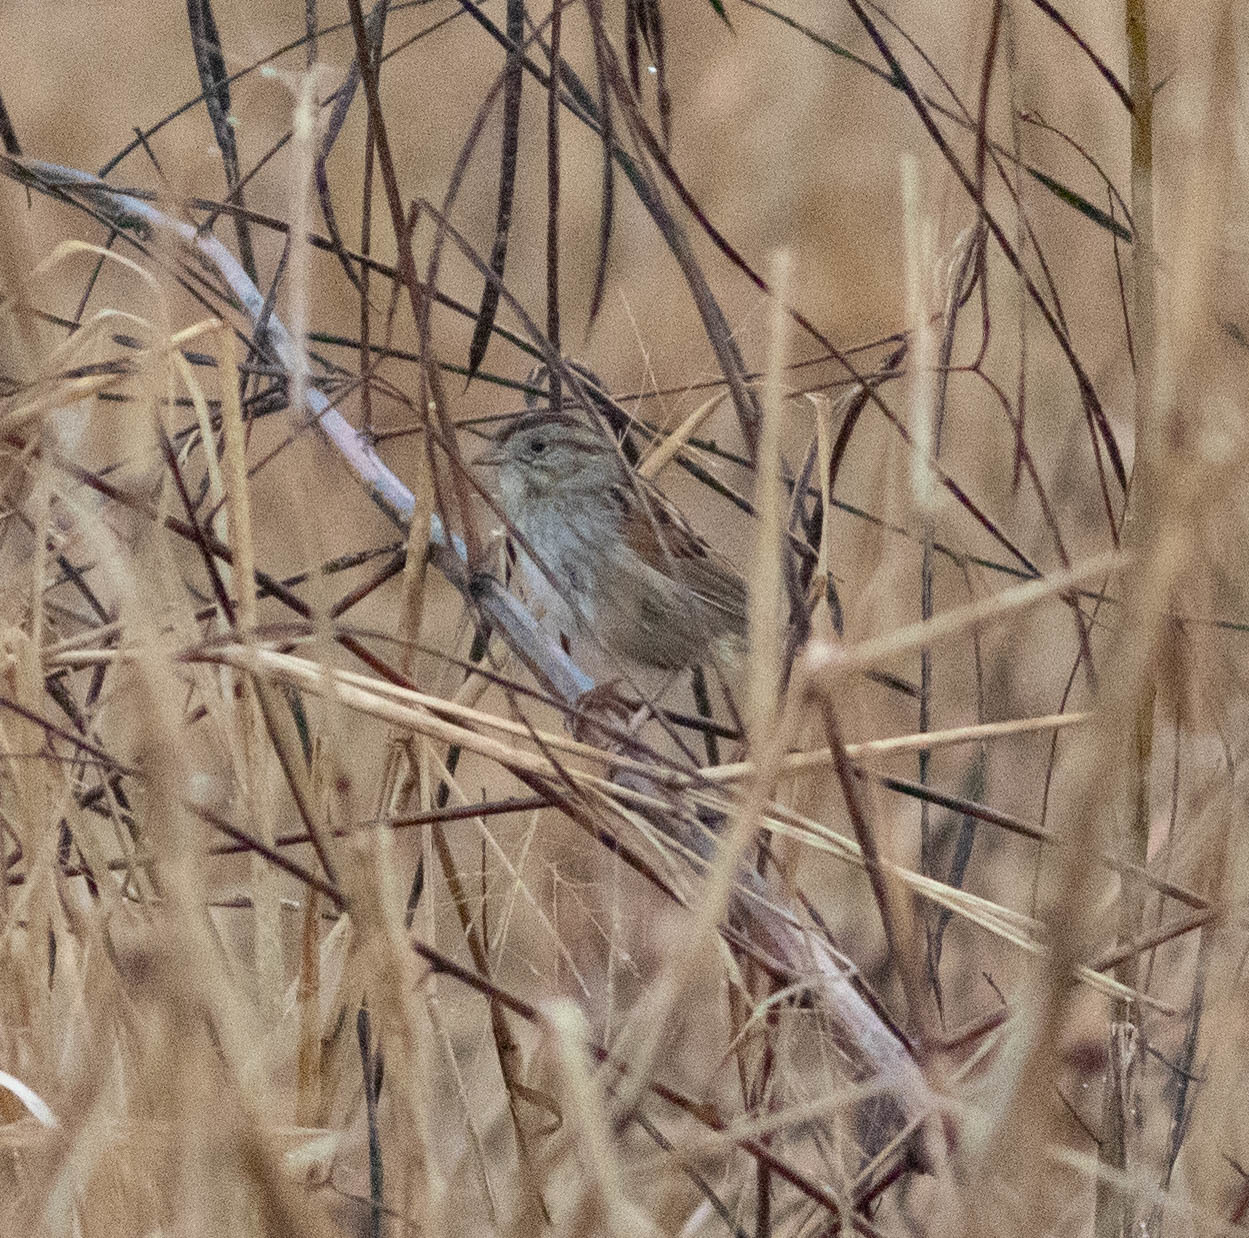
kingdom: Animalia
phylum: Chordata
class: Aves
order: Passeriformes
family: Passerellidae
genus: Melospiza
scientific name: Melospiza georgiana
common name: Swamp sparrow
